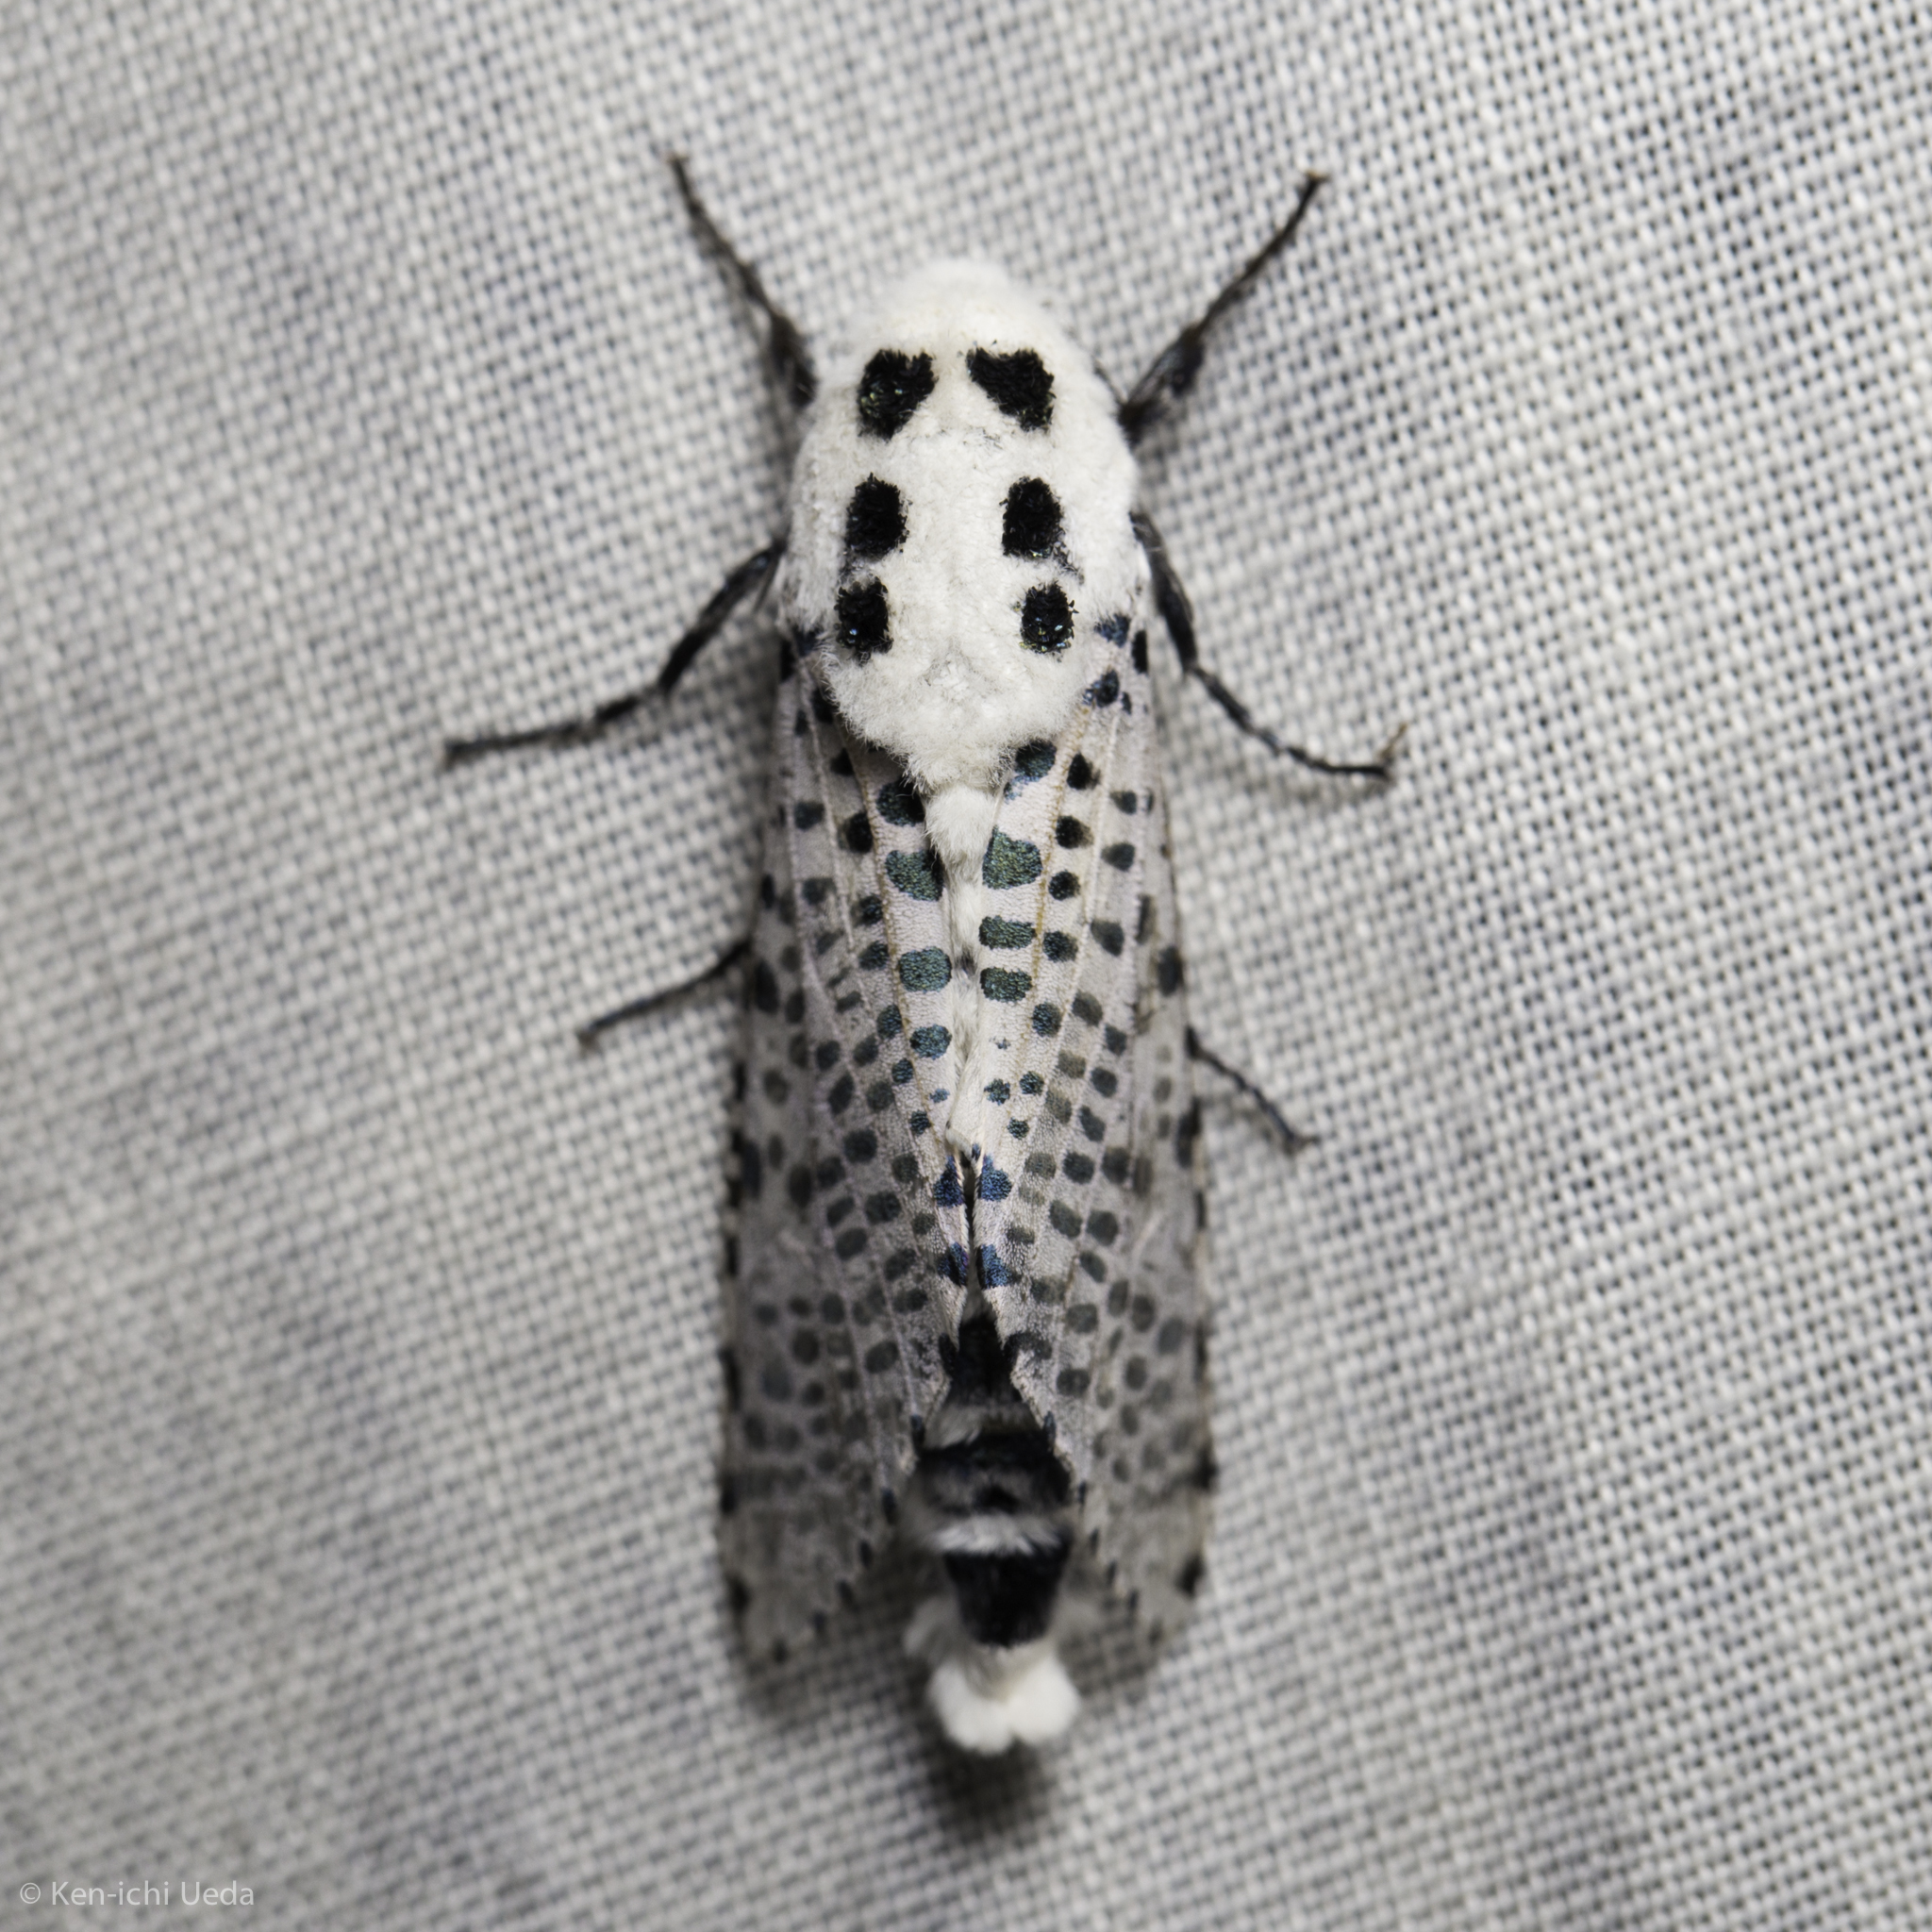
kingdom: Animalia
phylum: Arthropoda
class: Insecta
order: Lepidoptera
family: Cossidae
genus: Zeuzera
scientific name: Zeuzera pyrina
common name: Leopard moth
